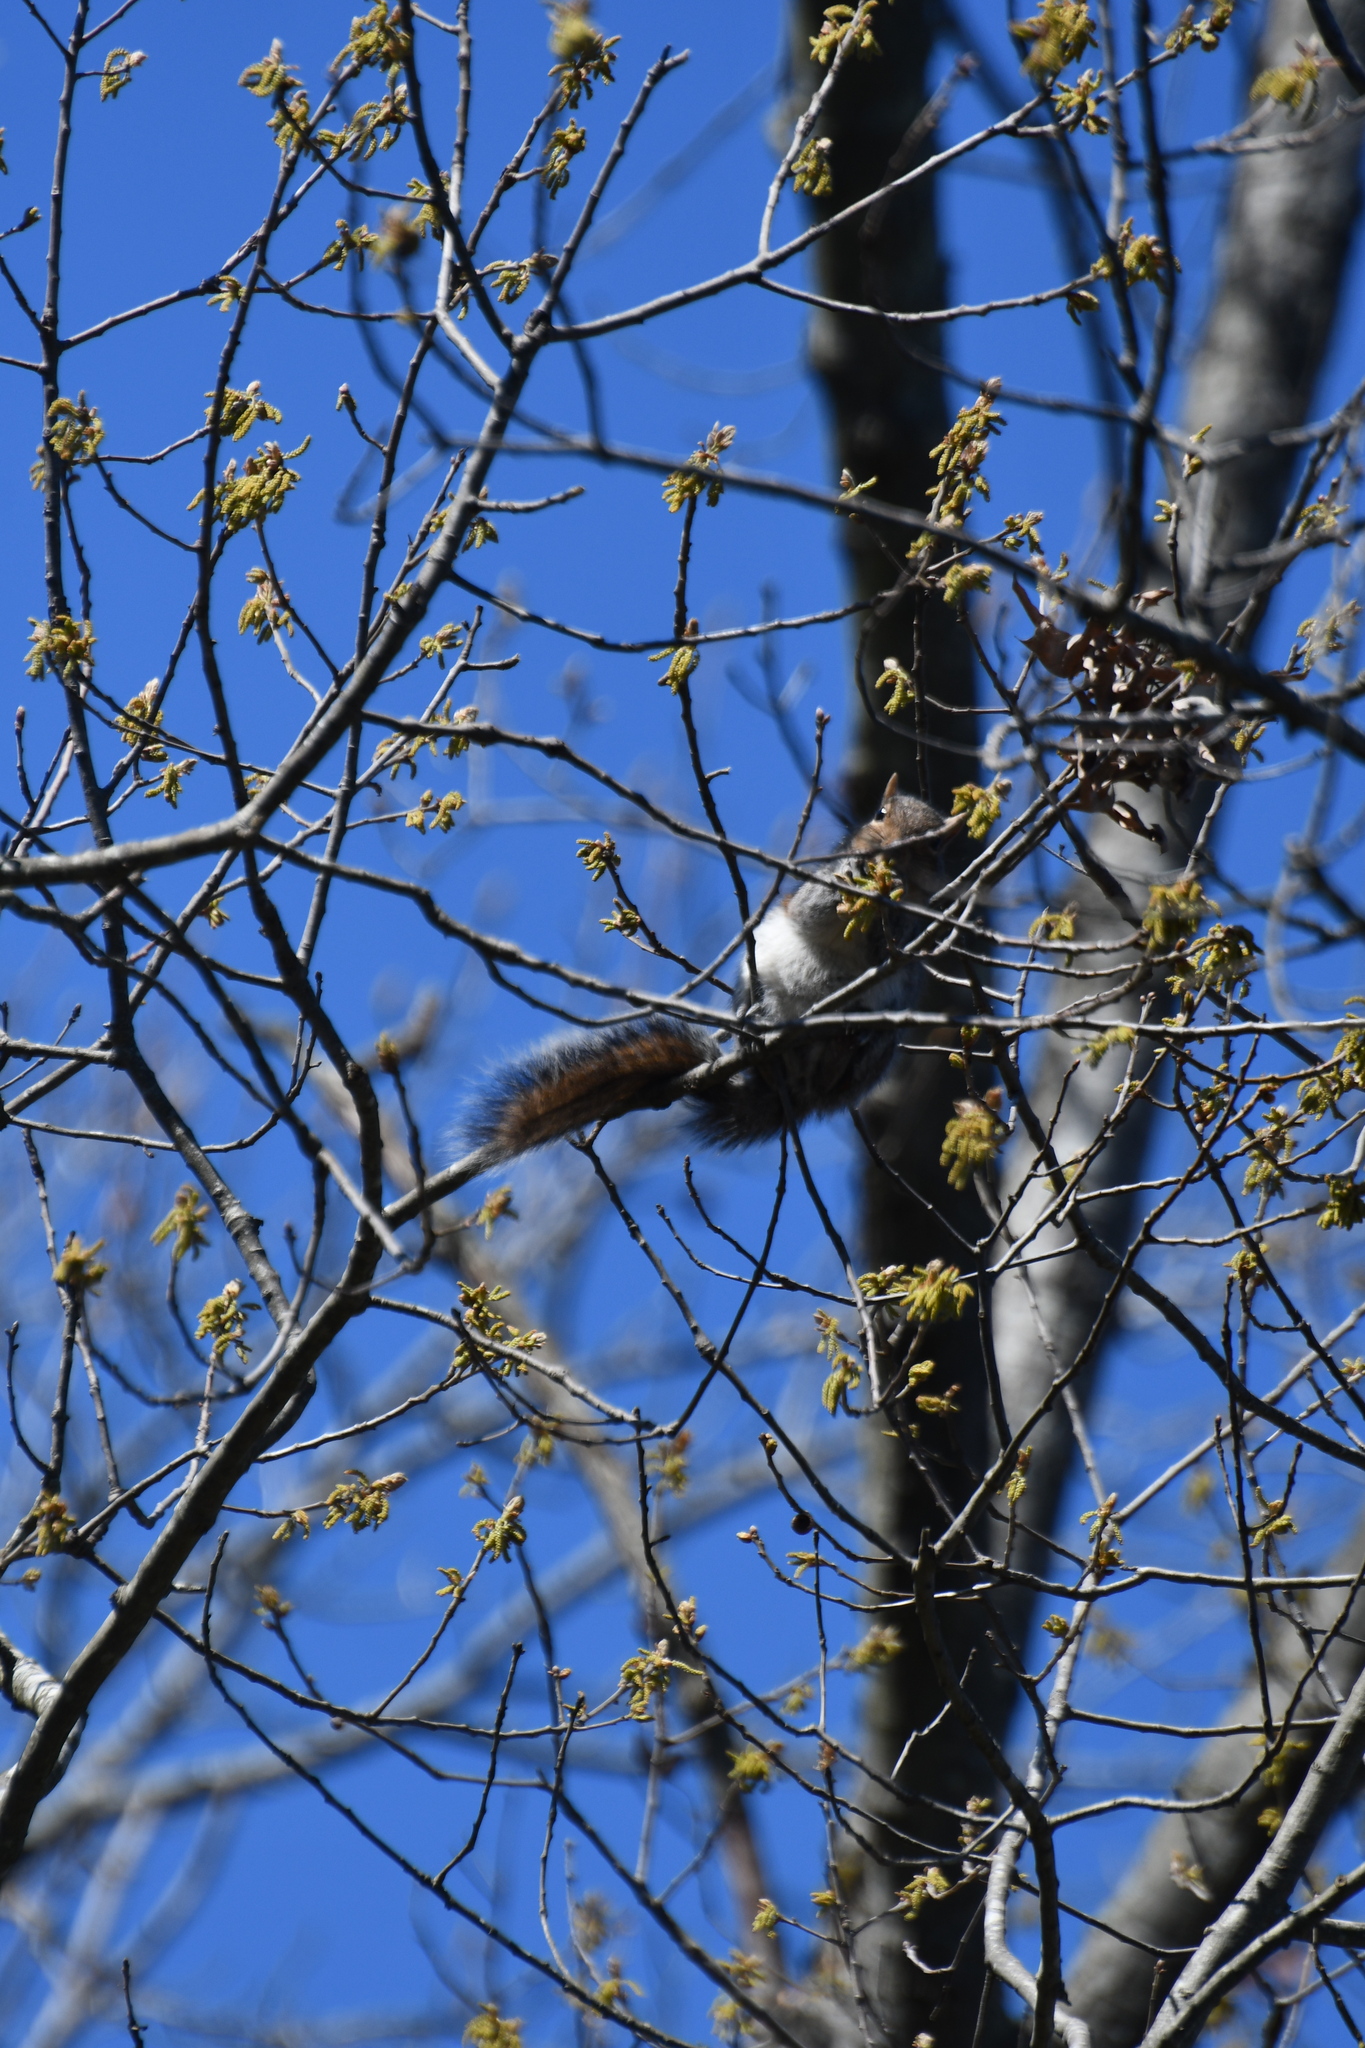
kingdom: Animalia
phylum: Chordata
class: Mammalia
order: Rodentia
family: Sciuridae
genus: Sciurus
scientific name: Sciurus carolinensis
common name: Eastern gray squirrel
